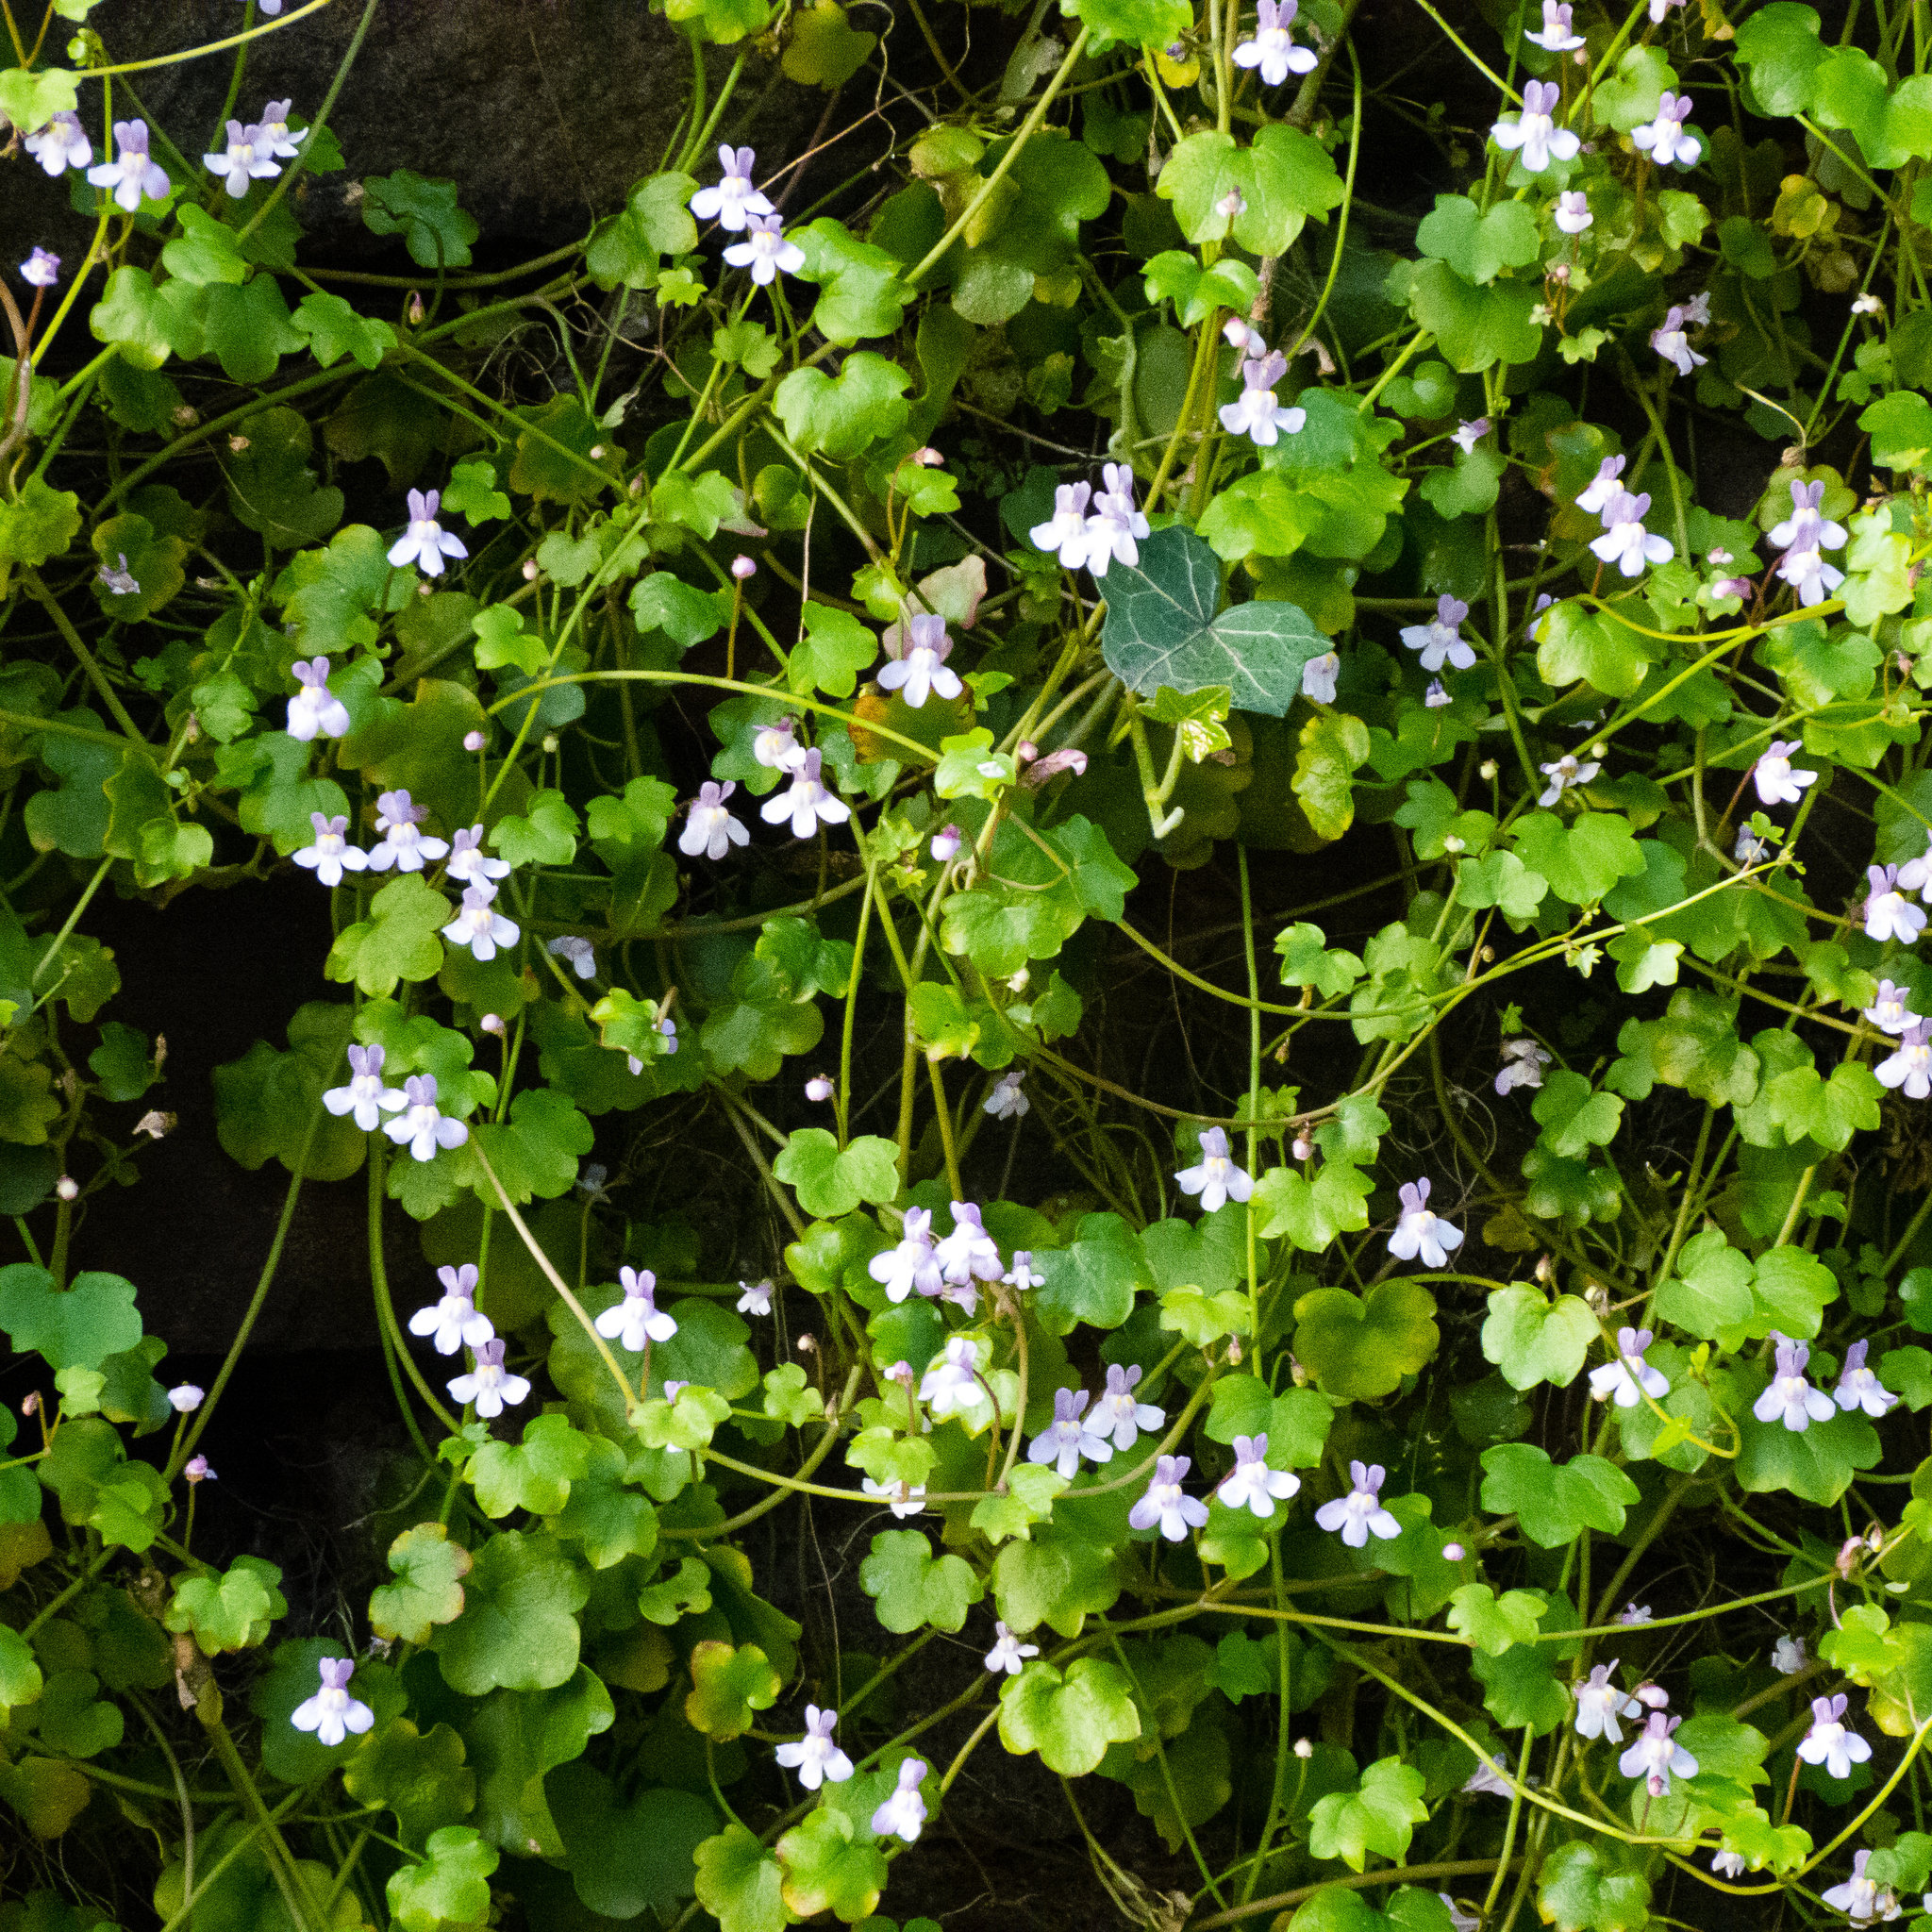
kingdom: Plantae
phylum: Tracheophyta
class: Magnoliopsida
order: Lamiales
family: Plantaginaceae
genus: Cymbalaria
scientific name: Cymbalaria muralis
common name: Ivy-leaved toadflax
